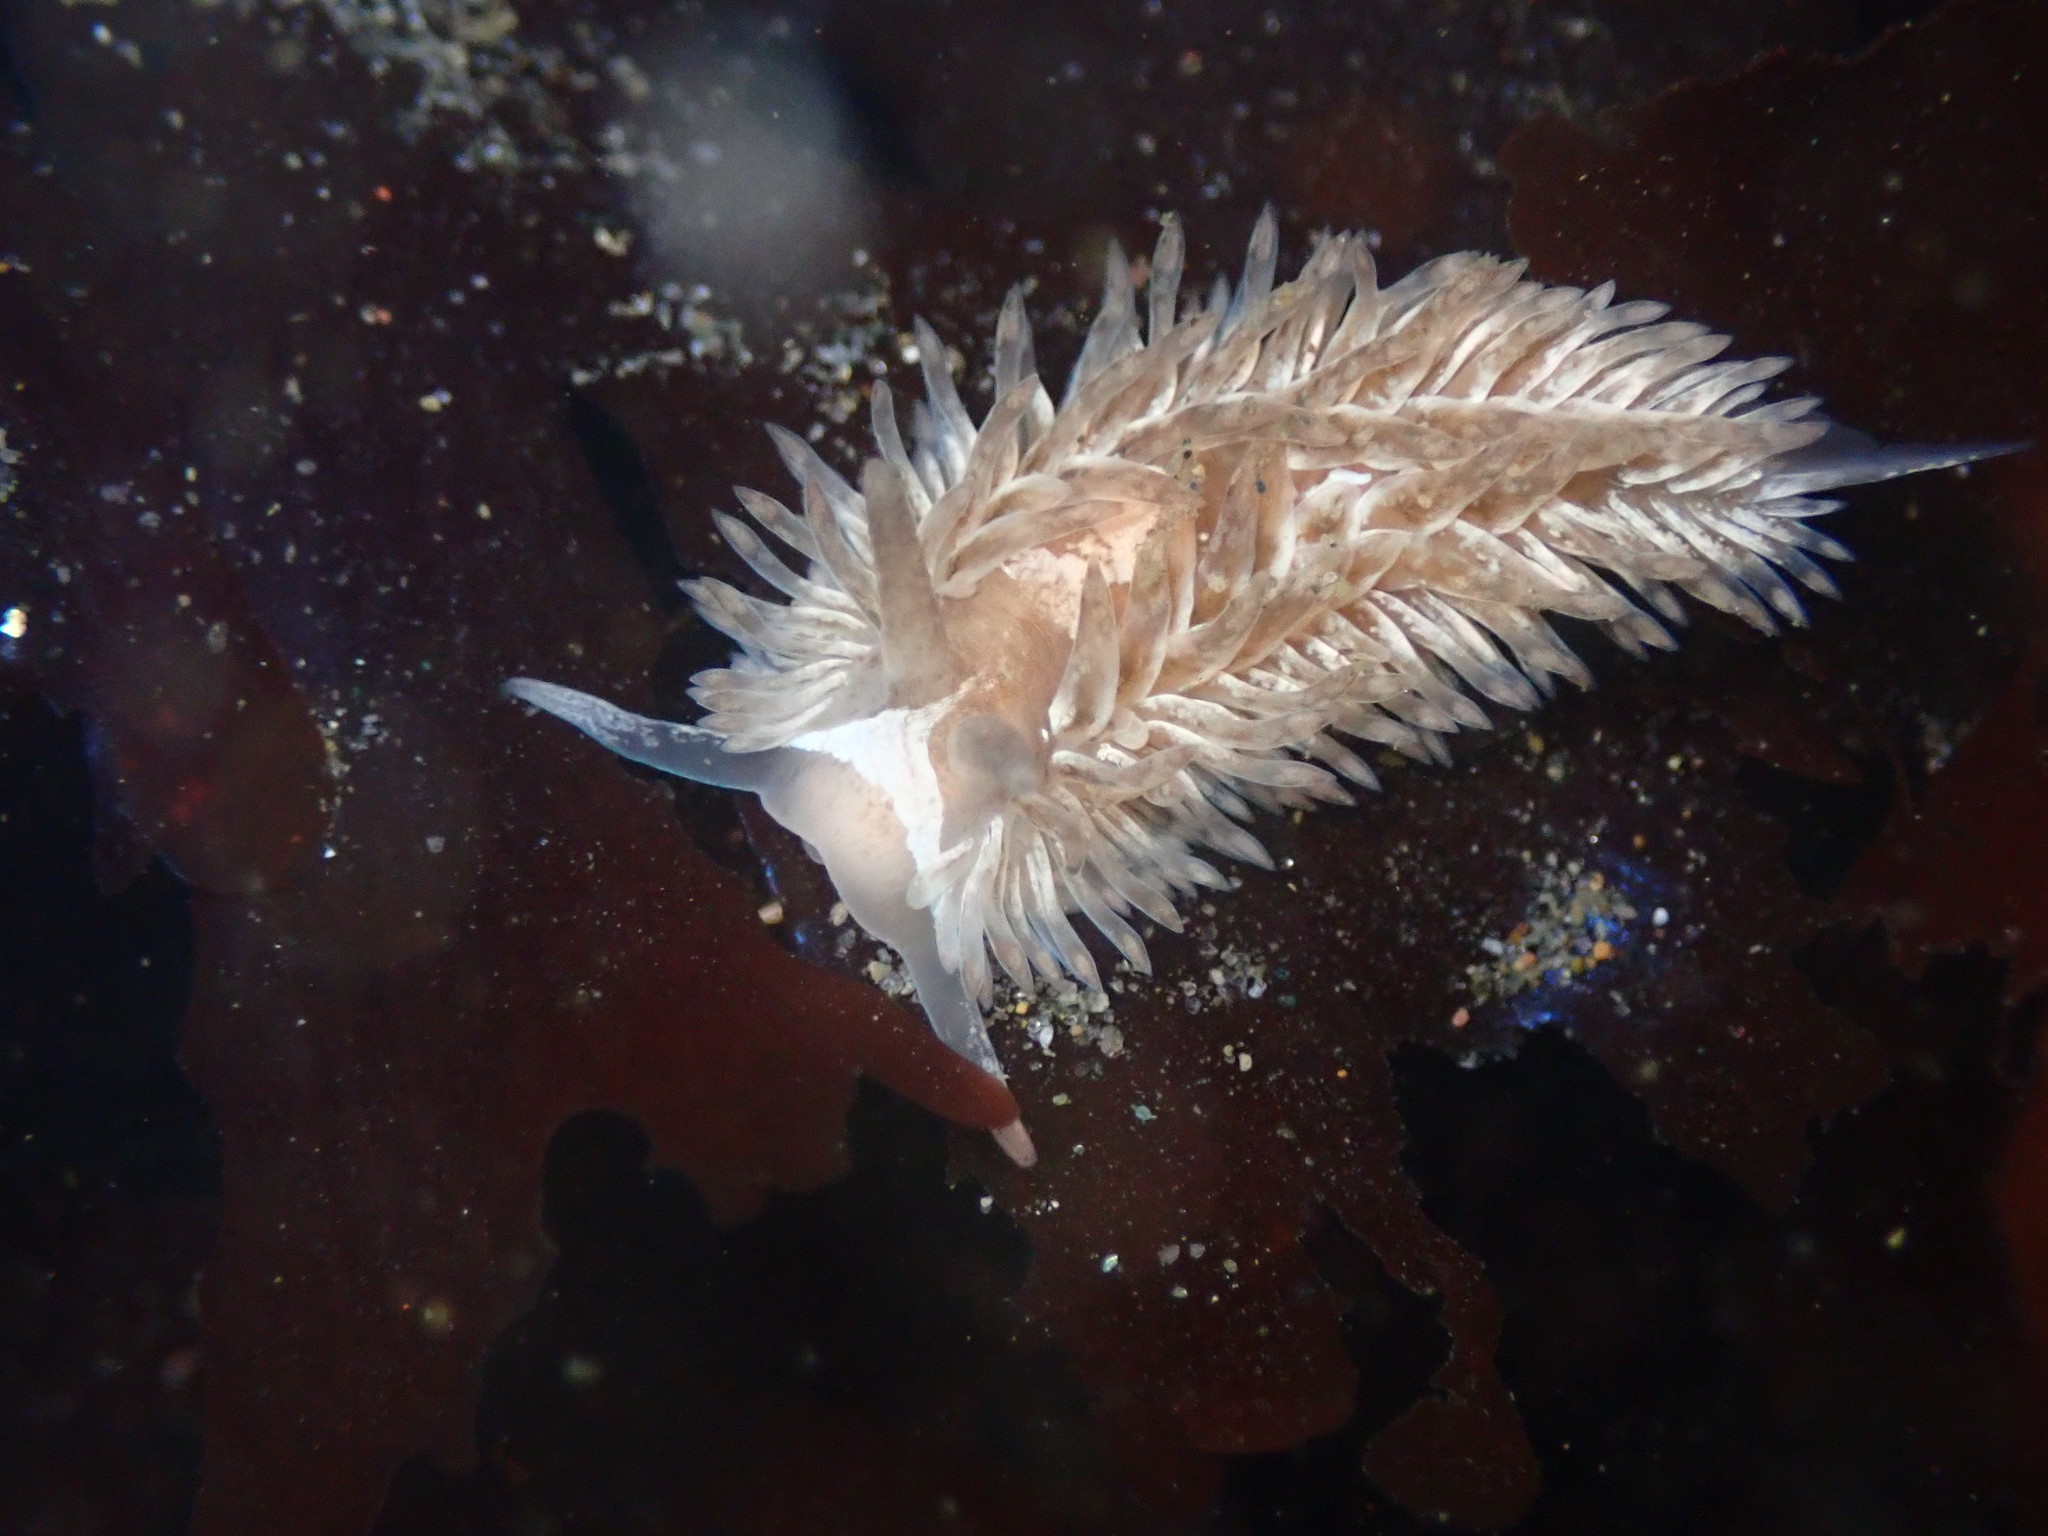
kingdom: Animalia
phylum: Mollusca
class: Gastropoda
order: Nudibranchia
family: Aeolidiidae
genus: Aeolidia
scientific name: Aeolidia loui
